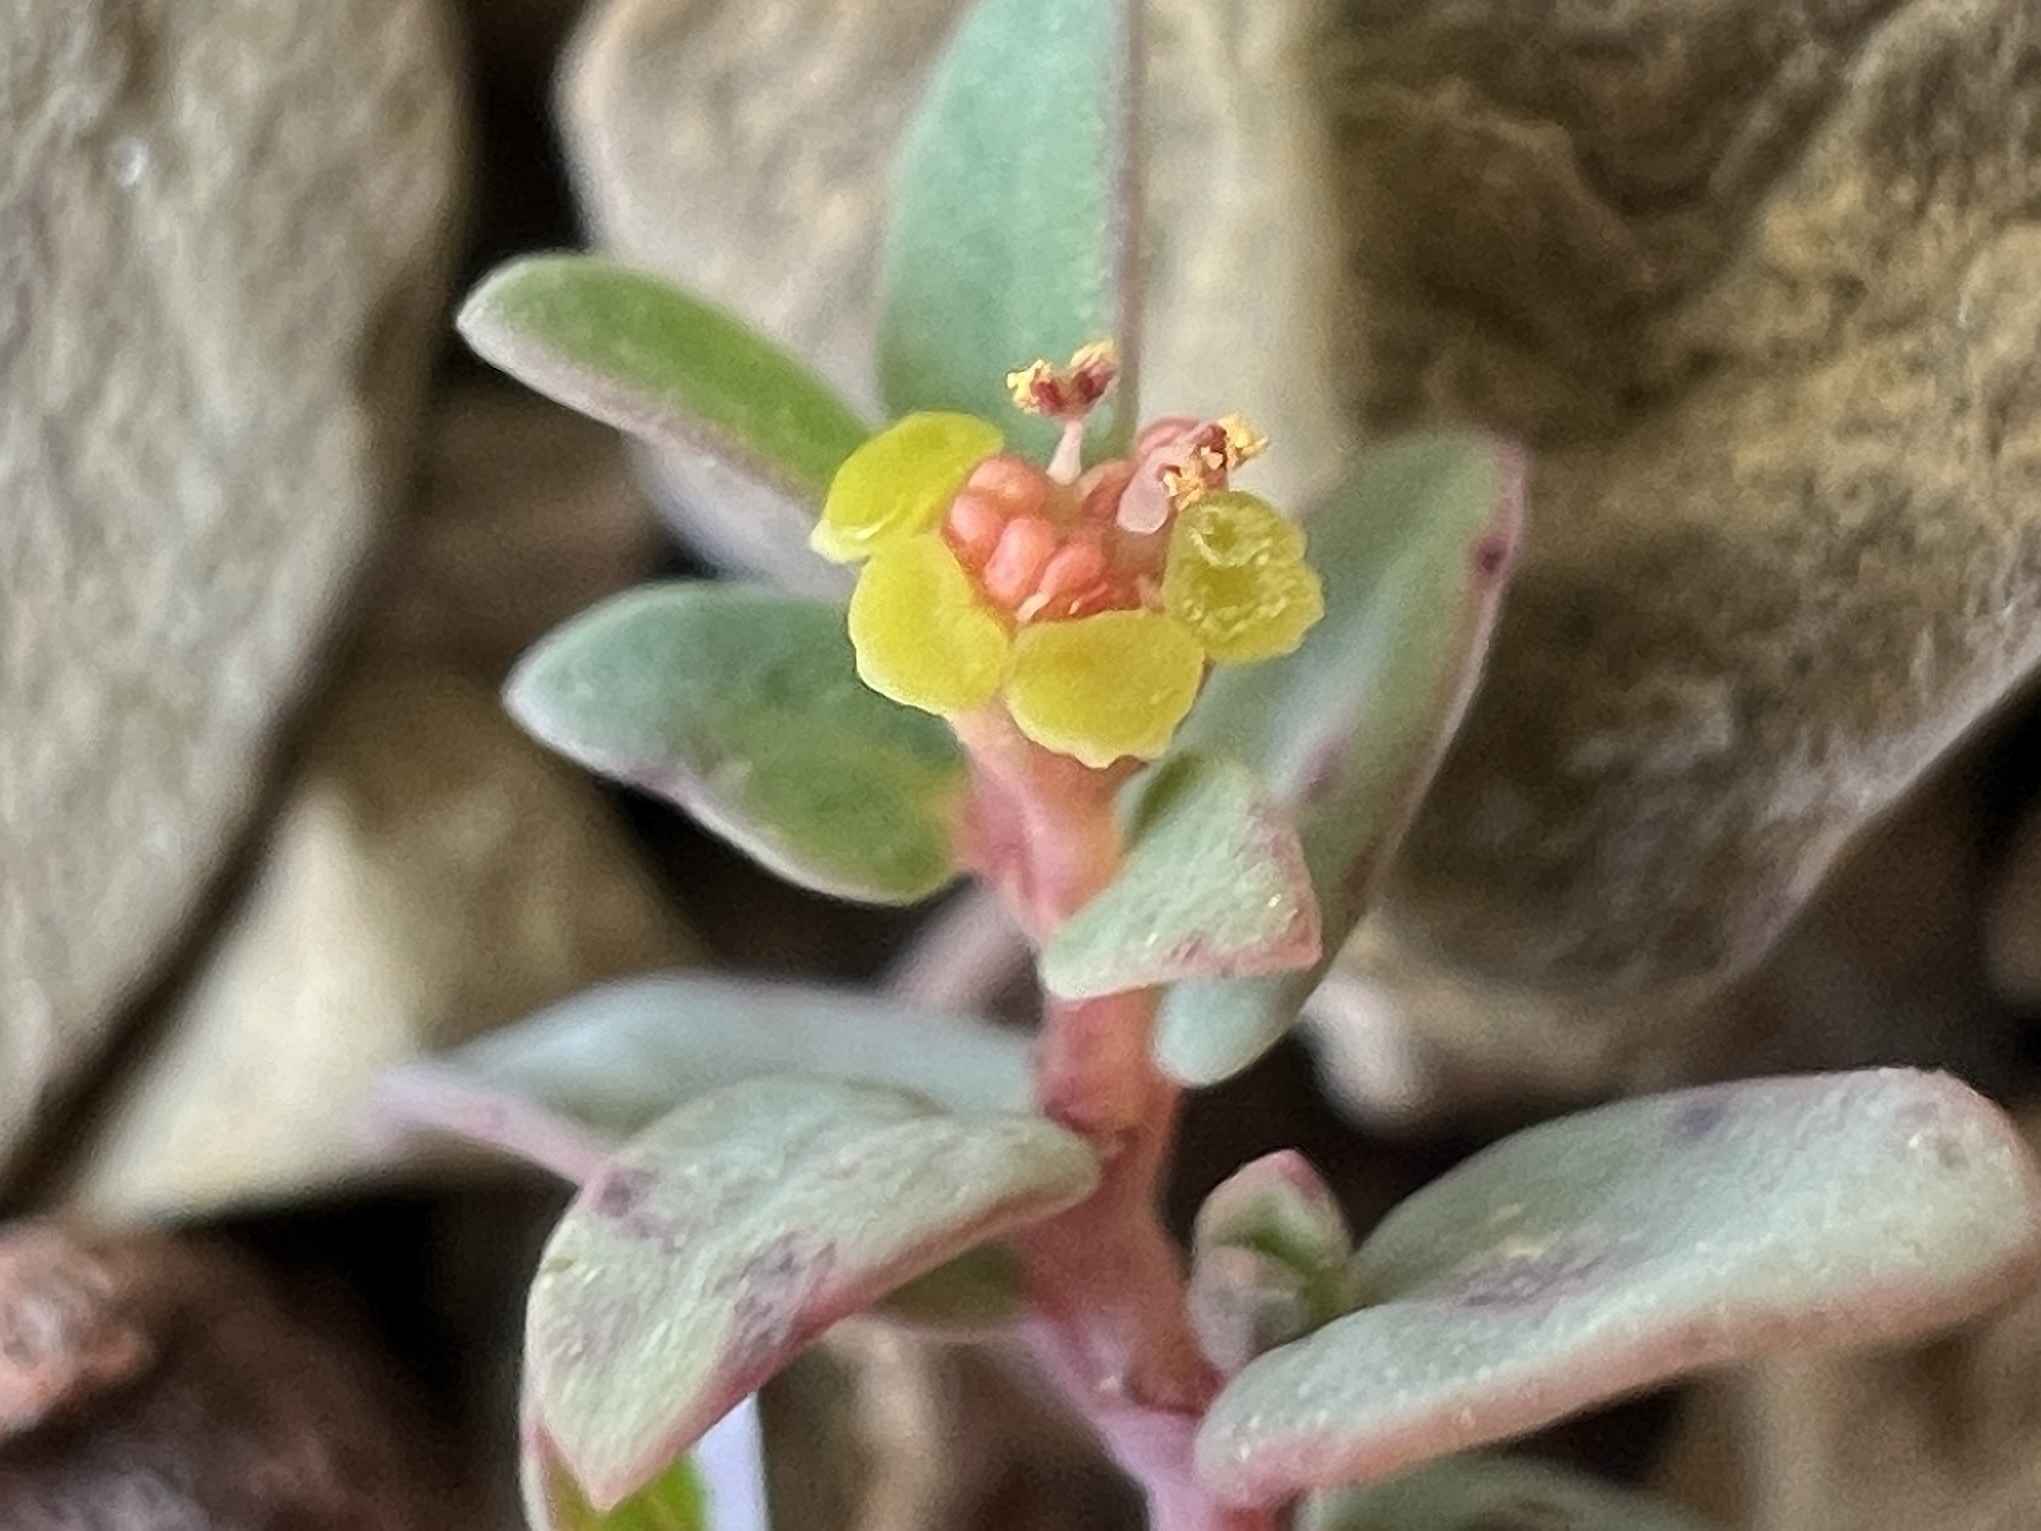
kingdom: Plantae
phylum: Tracheophyta
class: Magnoliopsida
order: Malpighiales
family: Euphorbiaceae
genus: Euphorbia
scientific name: Euphorbia fendleri
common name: Fendler's euphorbia
